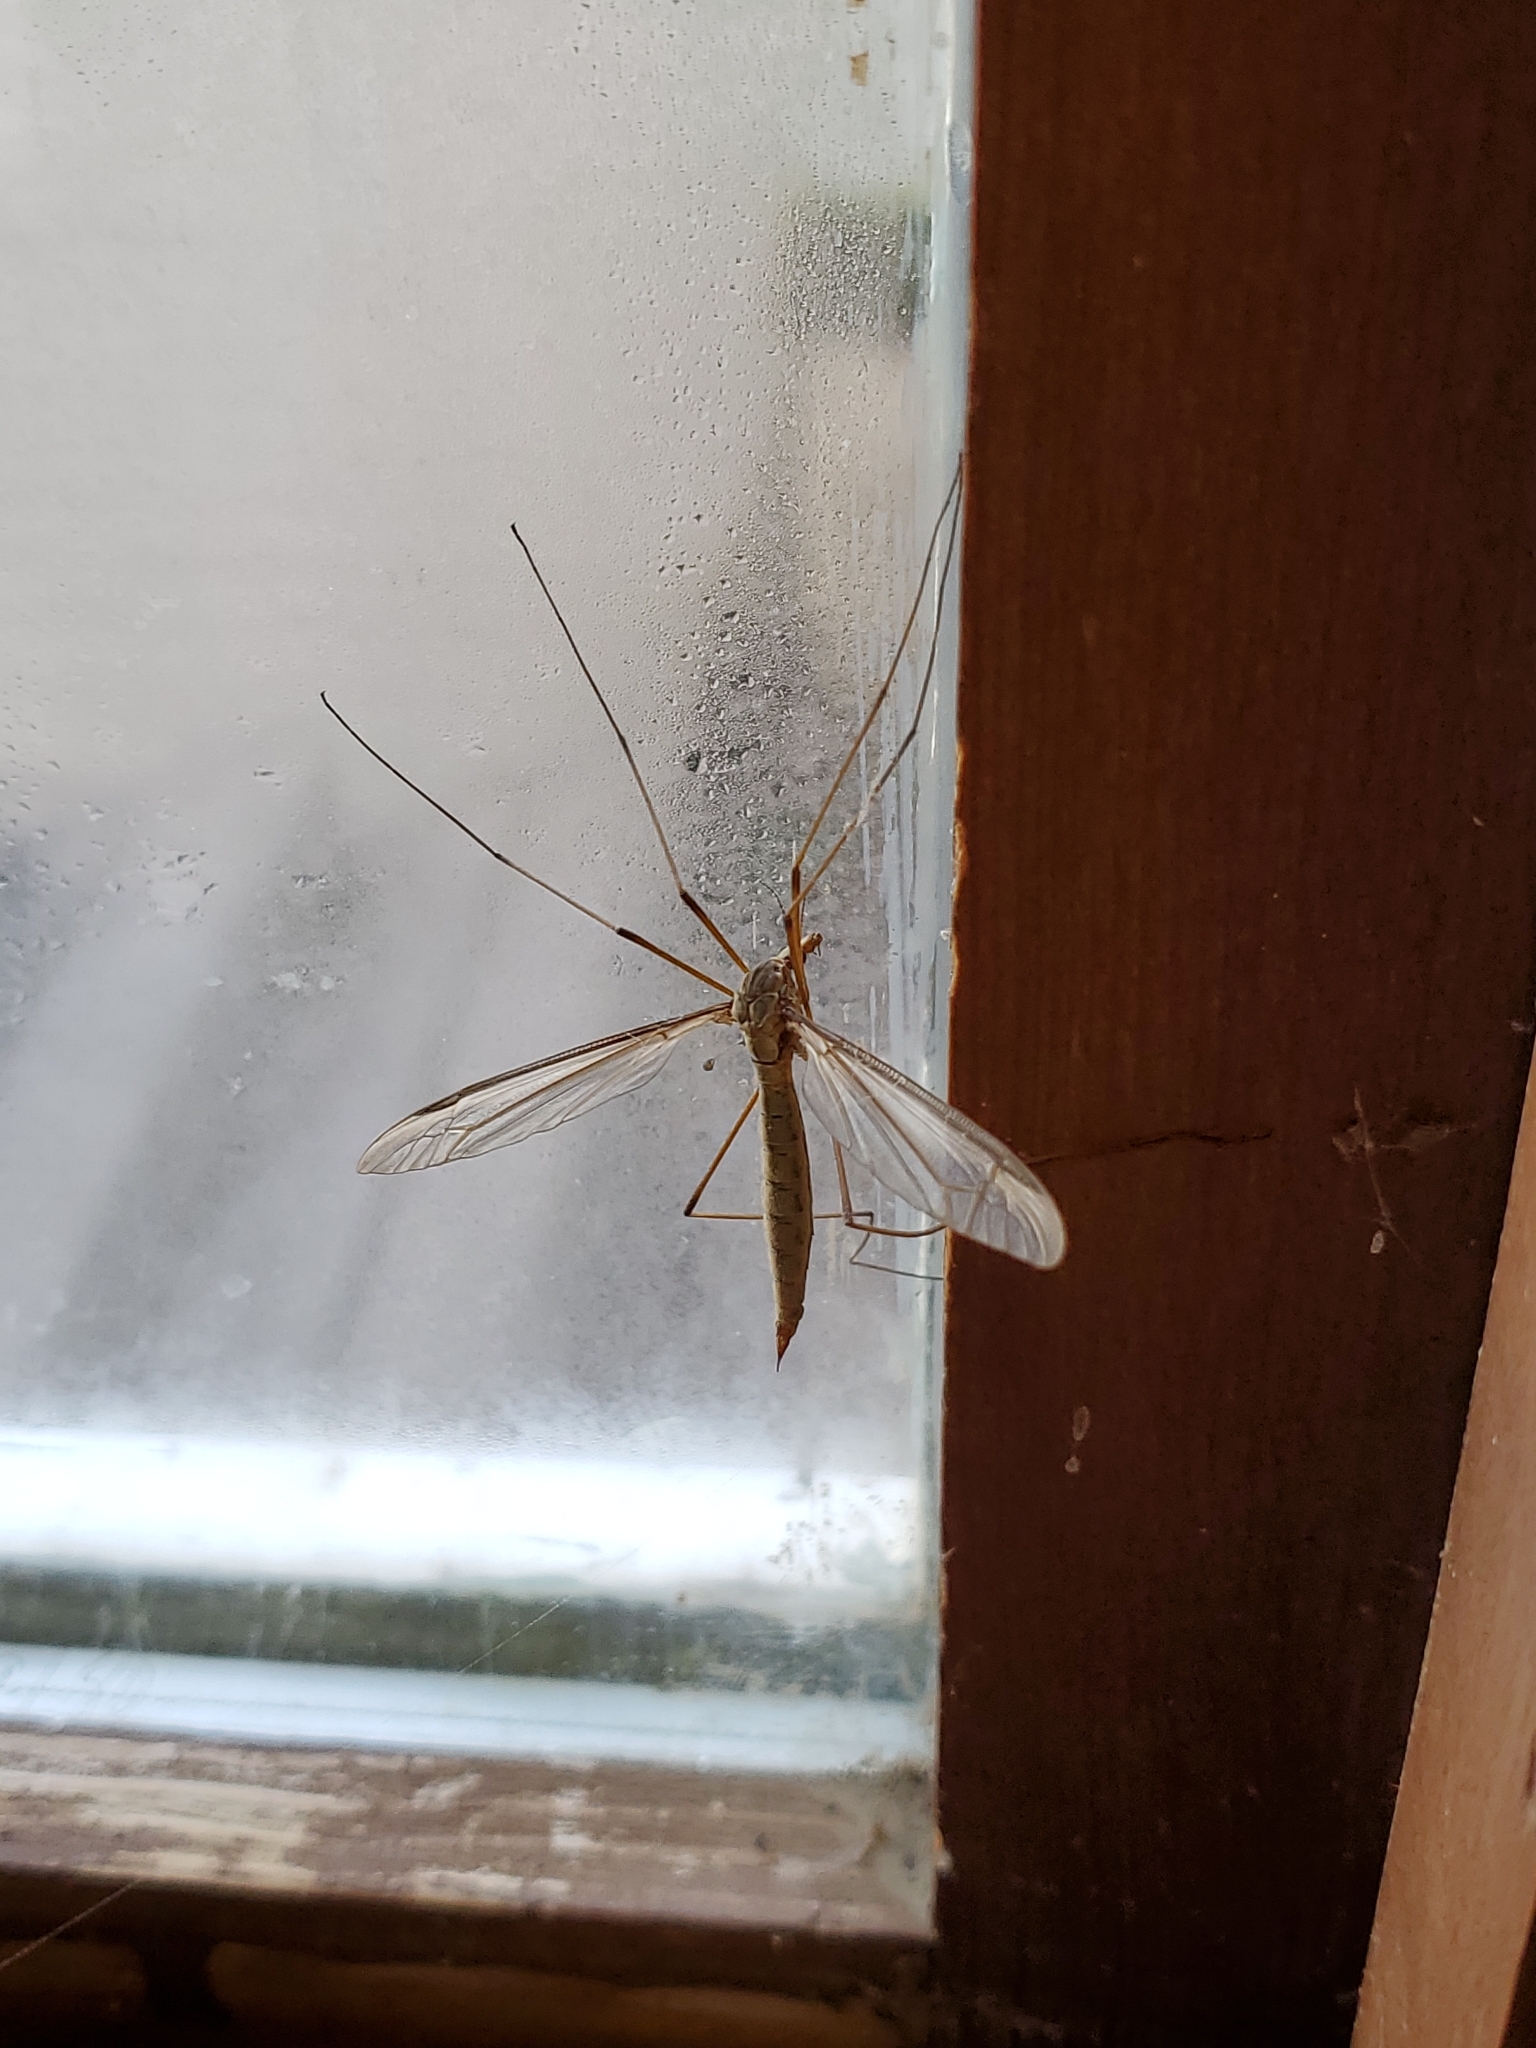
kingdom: Animalia
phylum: Arthropoda
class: Insecta
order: Diptera
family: Tipulidae
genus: Tipula
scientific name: Tipula oleracea
